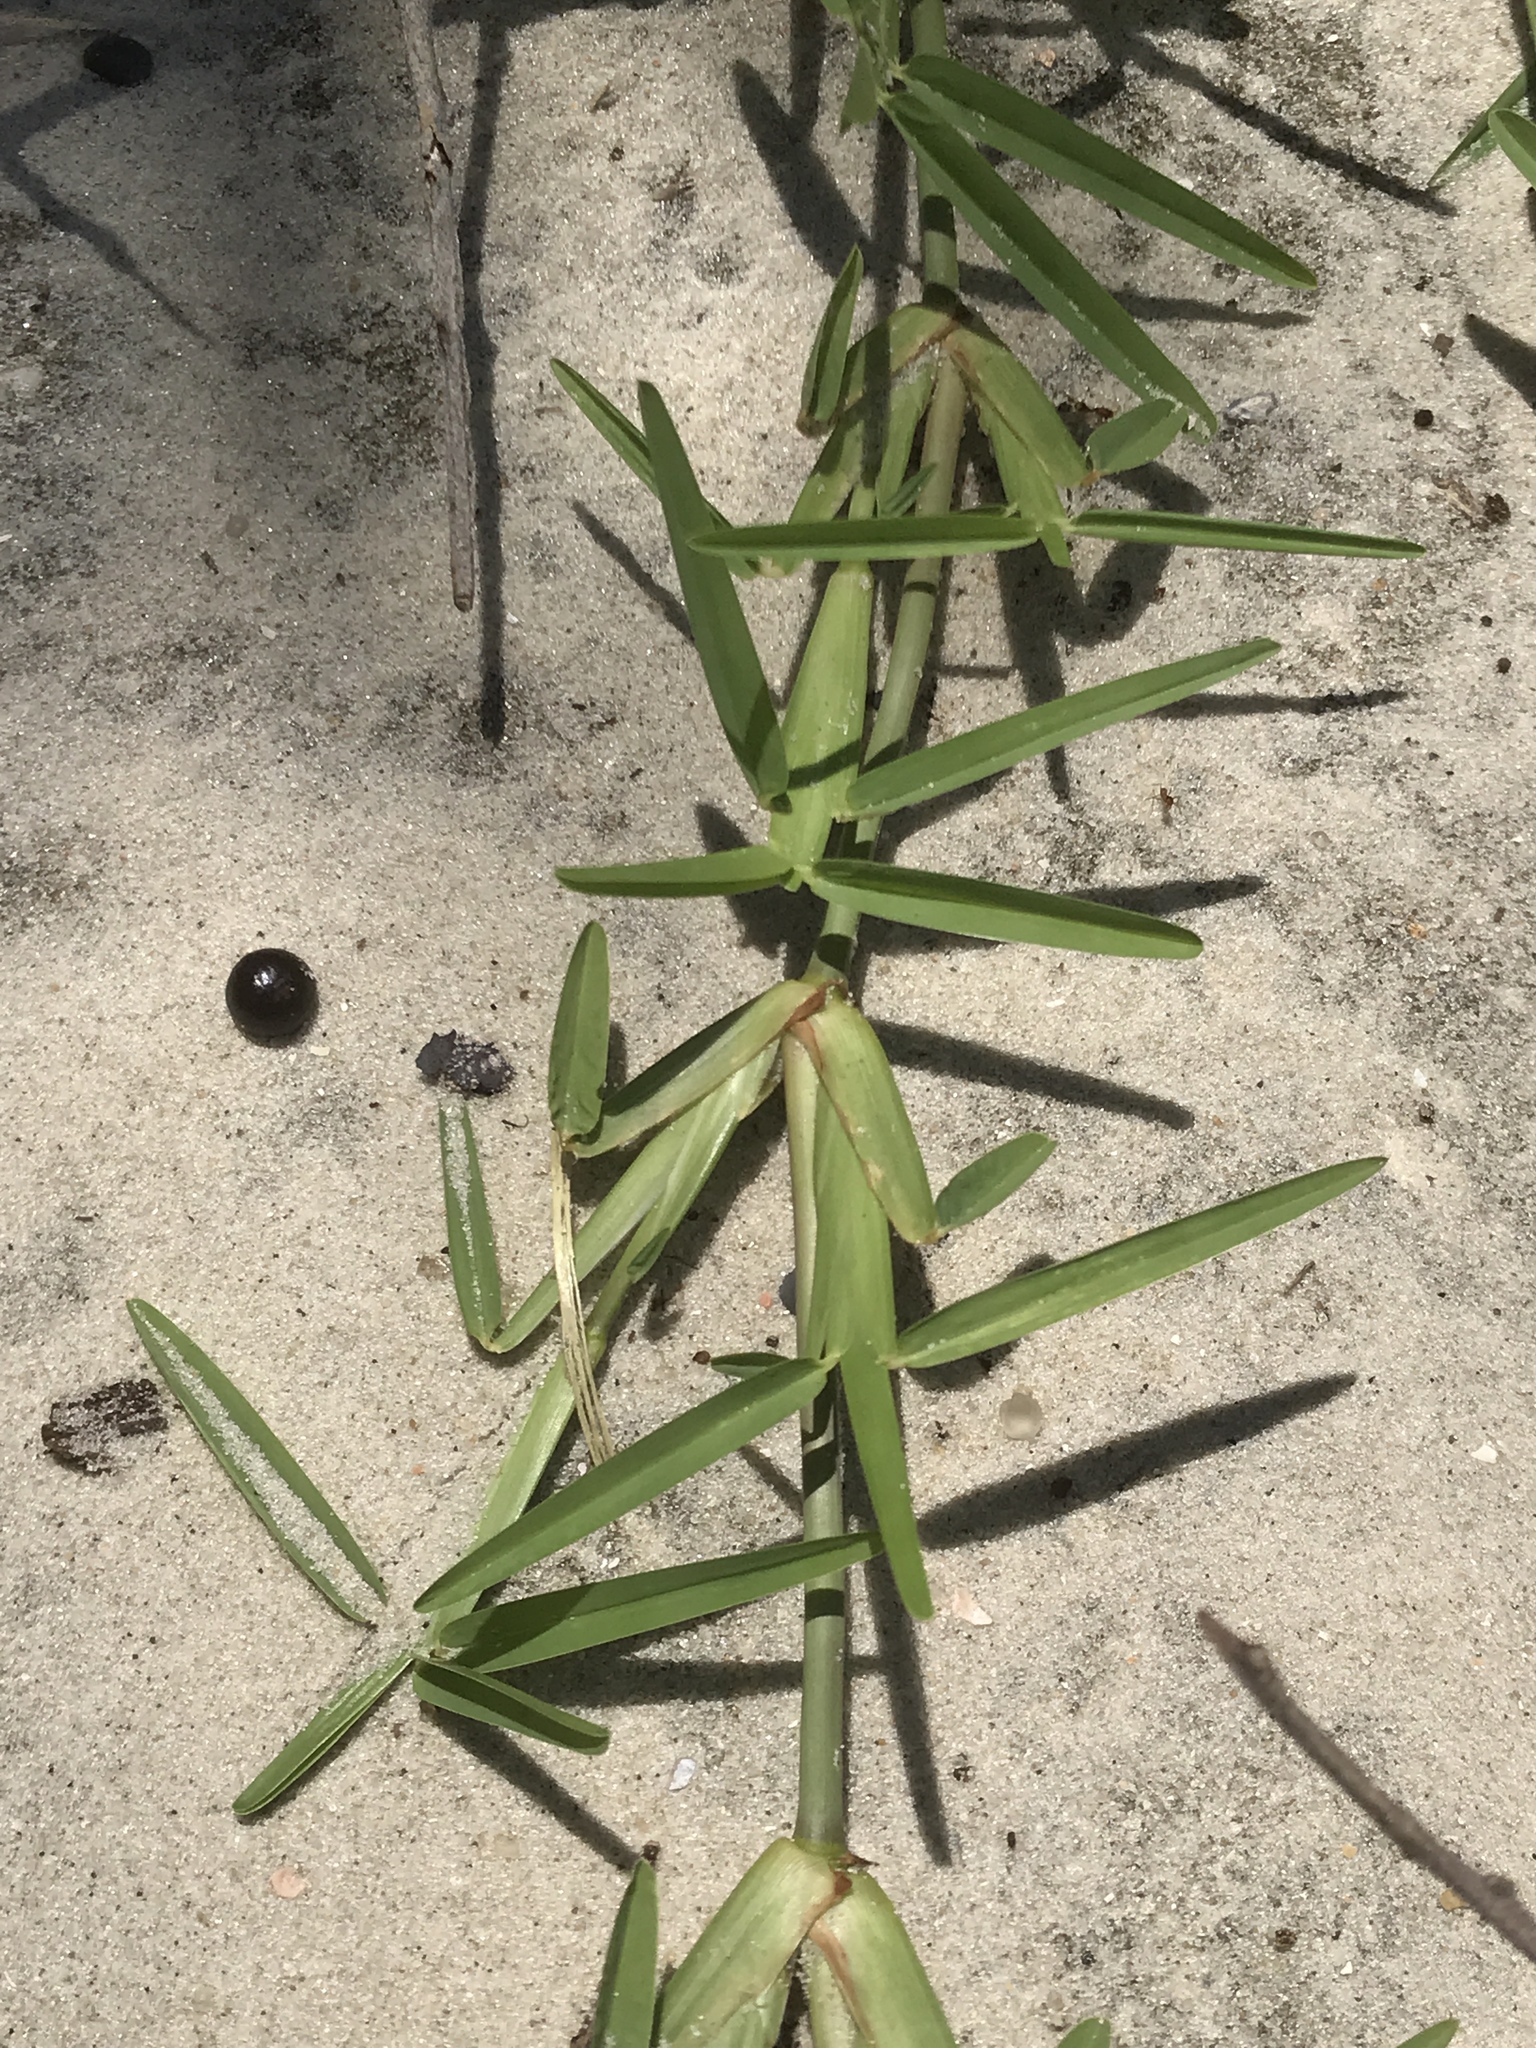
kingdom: Plantae
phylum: Tracheophyta
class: Liliopsida
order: Poales
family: Poaceae
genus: Stenotaphrum
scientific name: Stenotaphrum secundatum
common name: St. augustine grass
